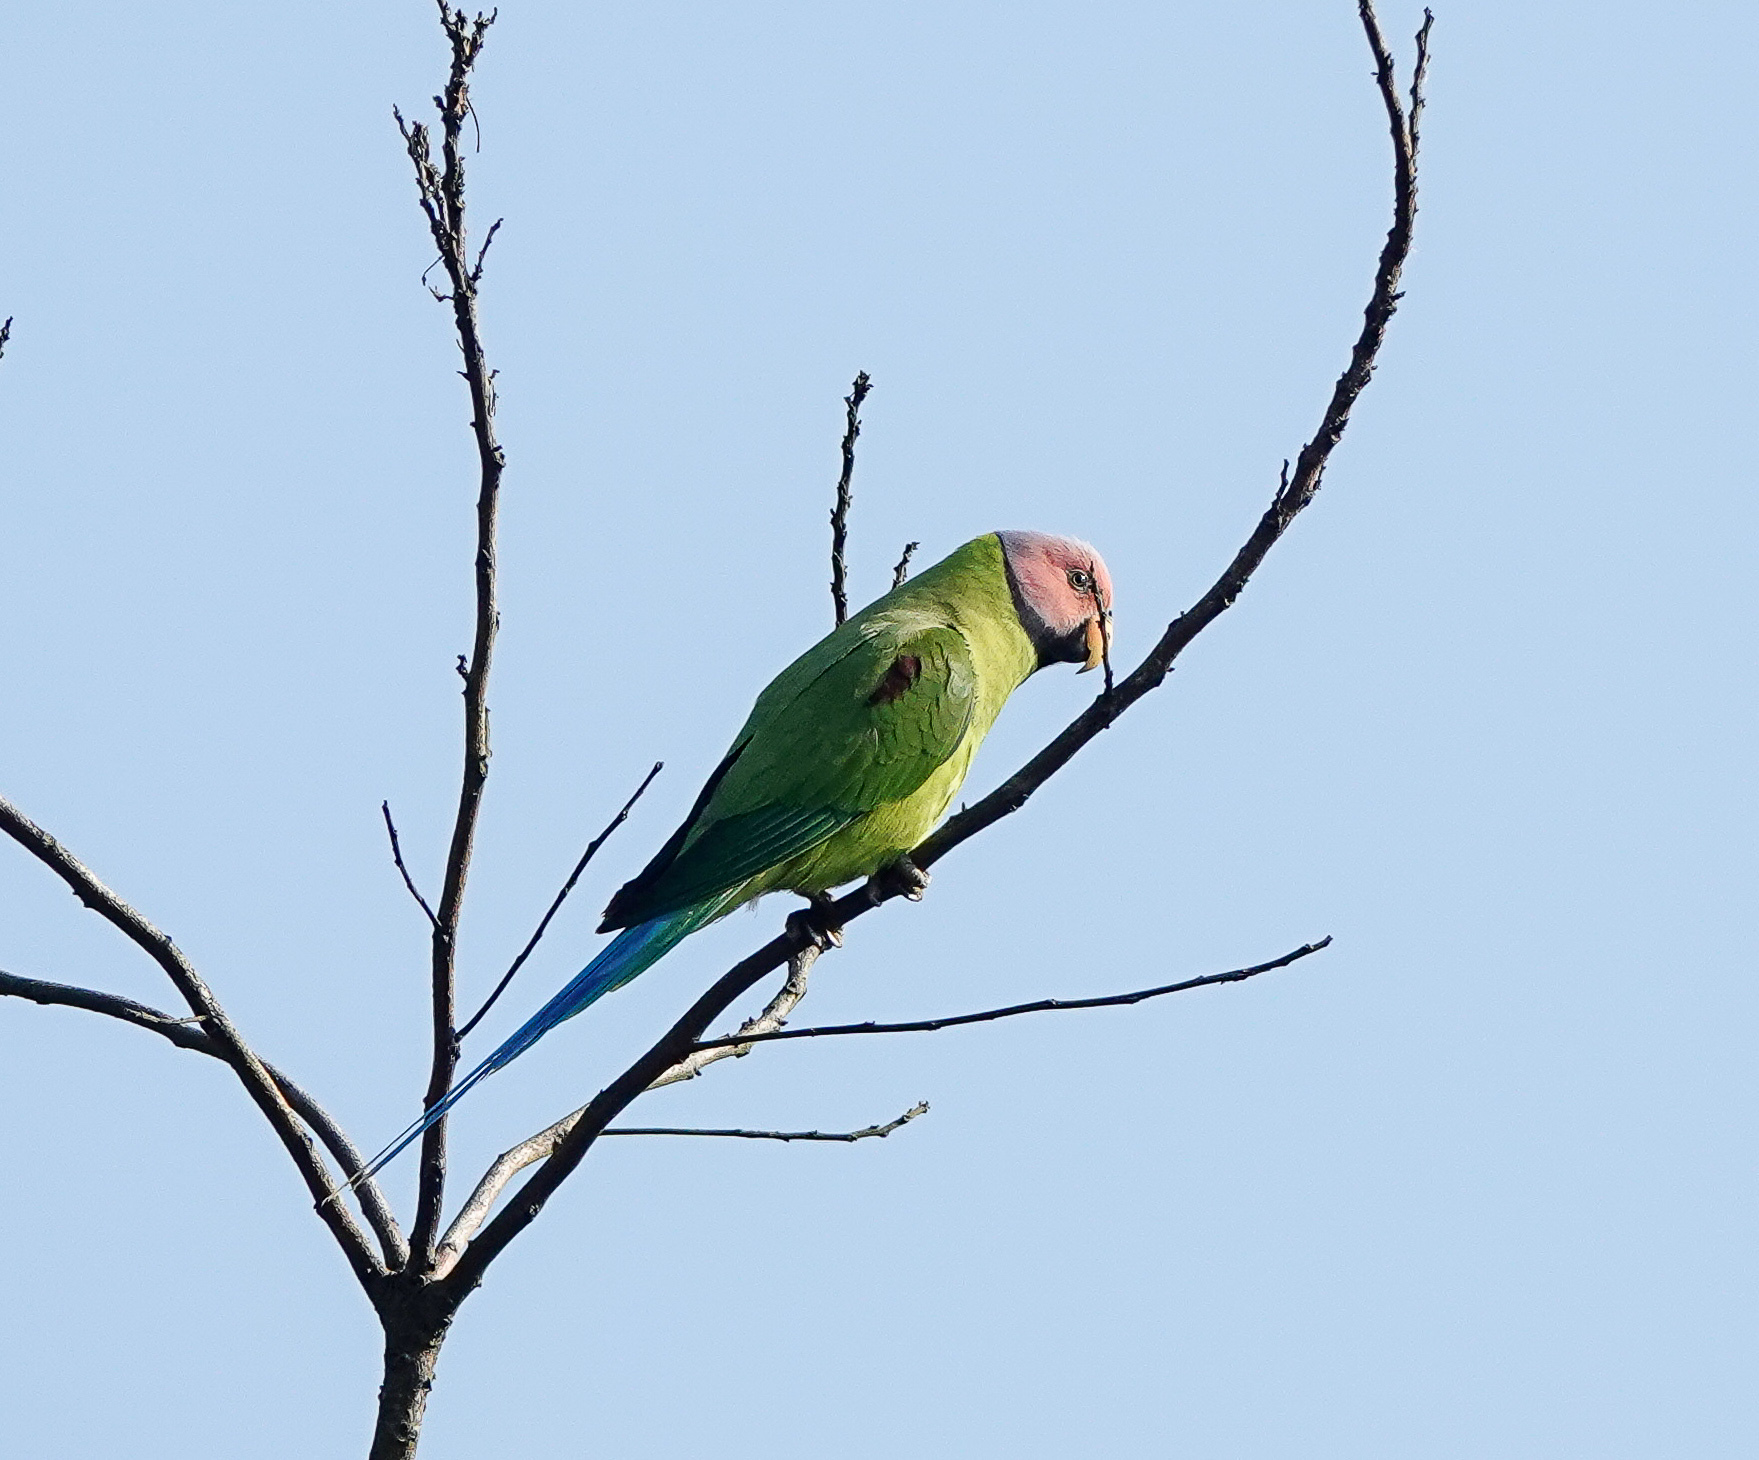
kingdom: Animalia
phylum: Chordata
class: Aves
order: Psittaciformes
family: Psittacidae
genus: Psittacula
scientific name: Psittacula roseata
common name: Blossom-headed parakeet
